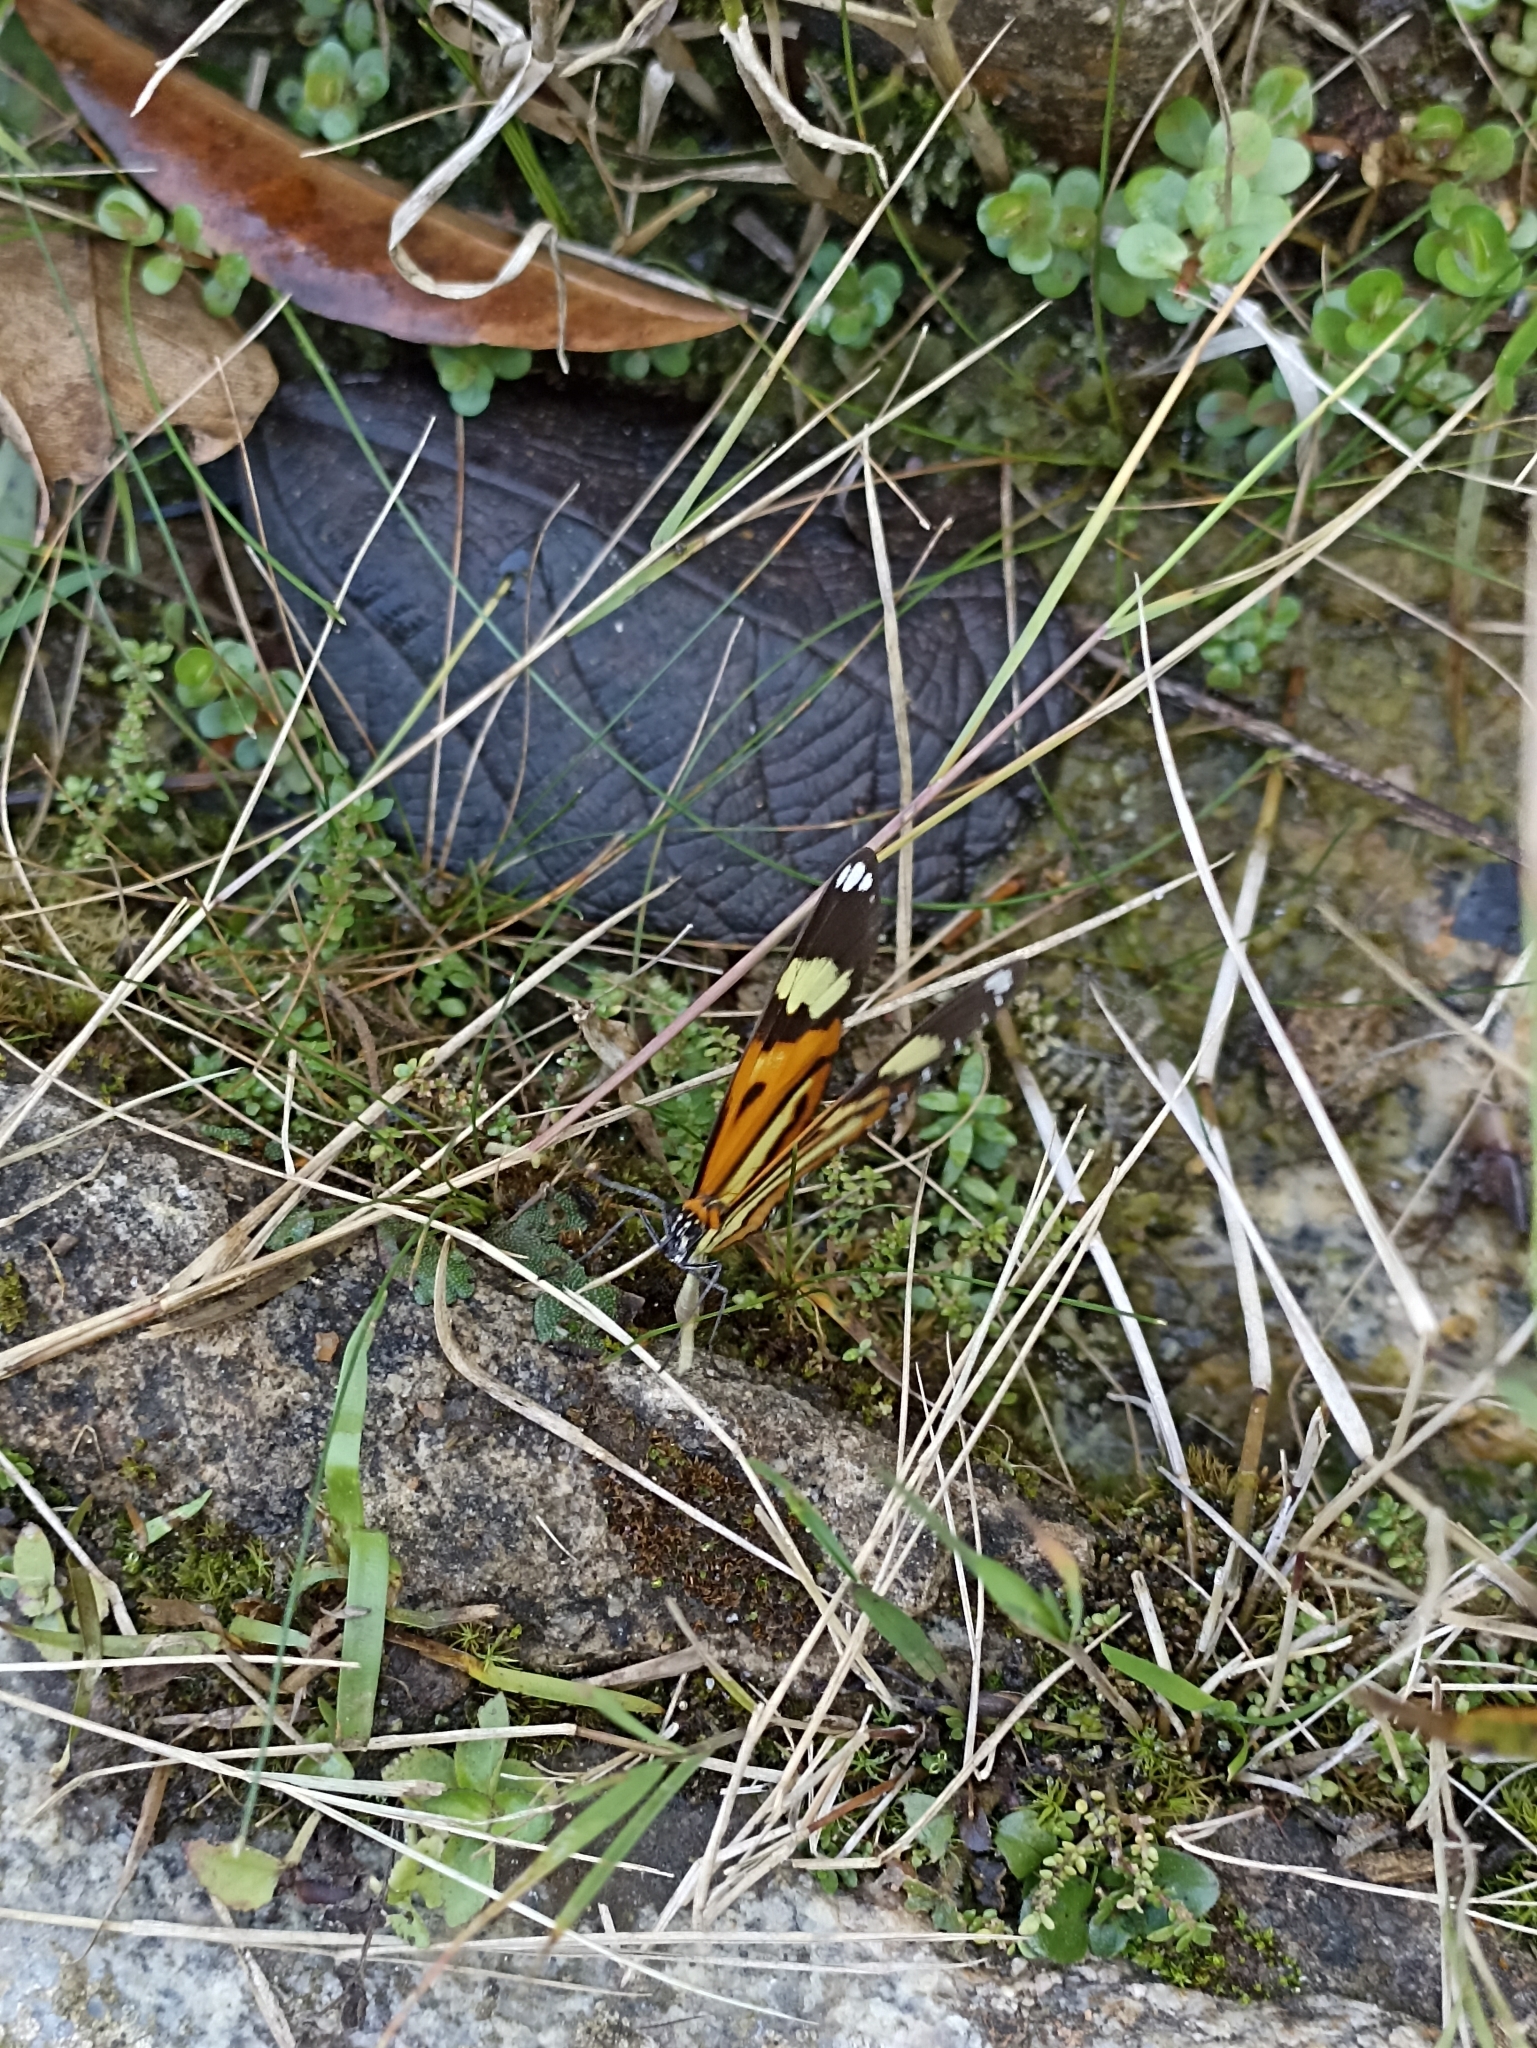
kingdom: Animalia
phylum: Arthropoda
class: Insecta
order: Lepidoptera
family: Nymphalidae
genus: Hypothyris
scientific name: Hypothyris ninonia
